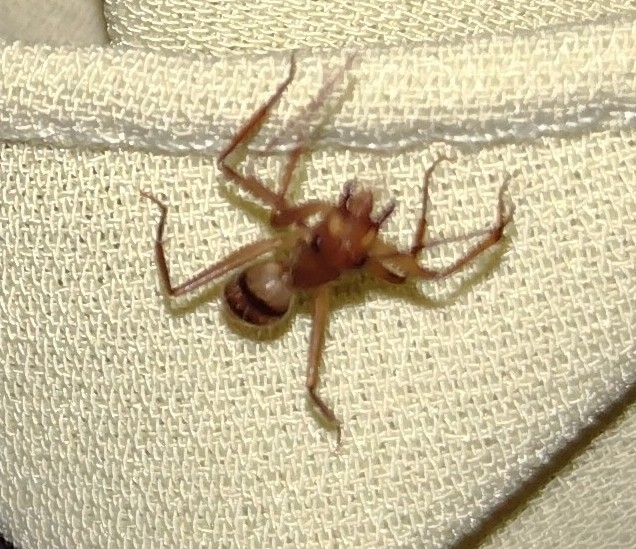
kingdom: Animalia
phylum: Arthropoda
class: Insecta
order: Hymenoptera
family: Formicidae
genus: Camponotus
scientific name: Camponotus
